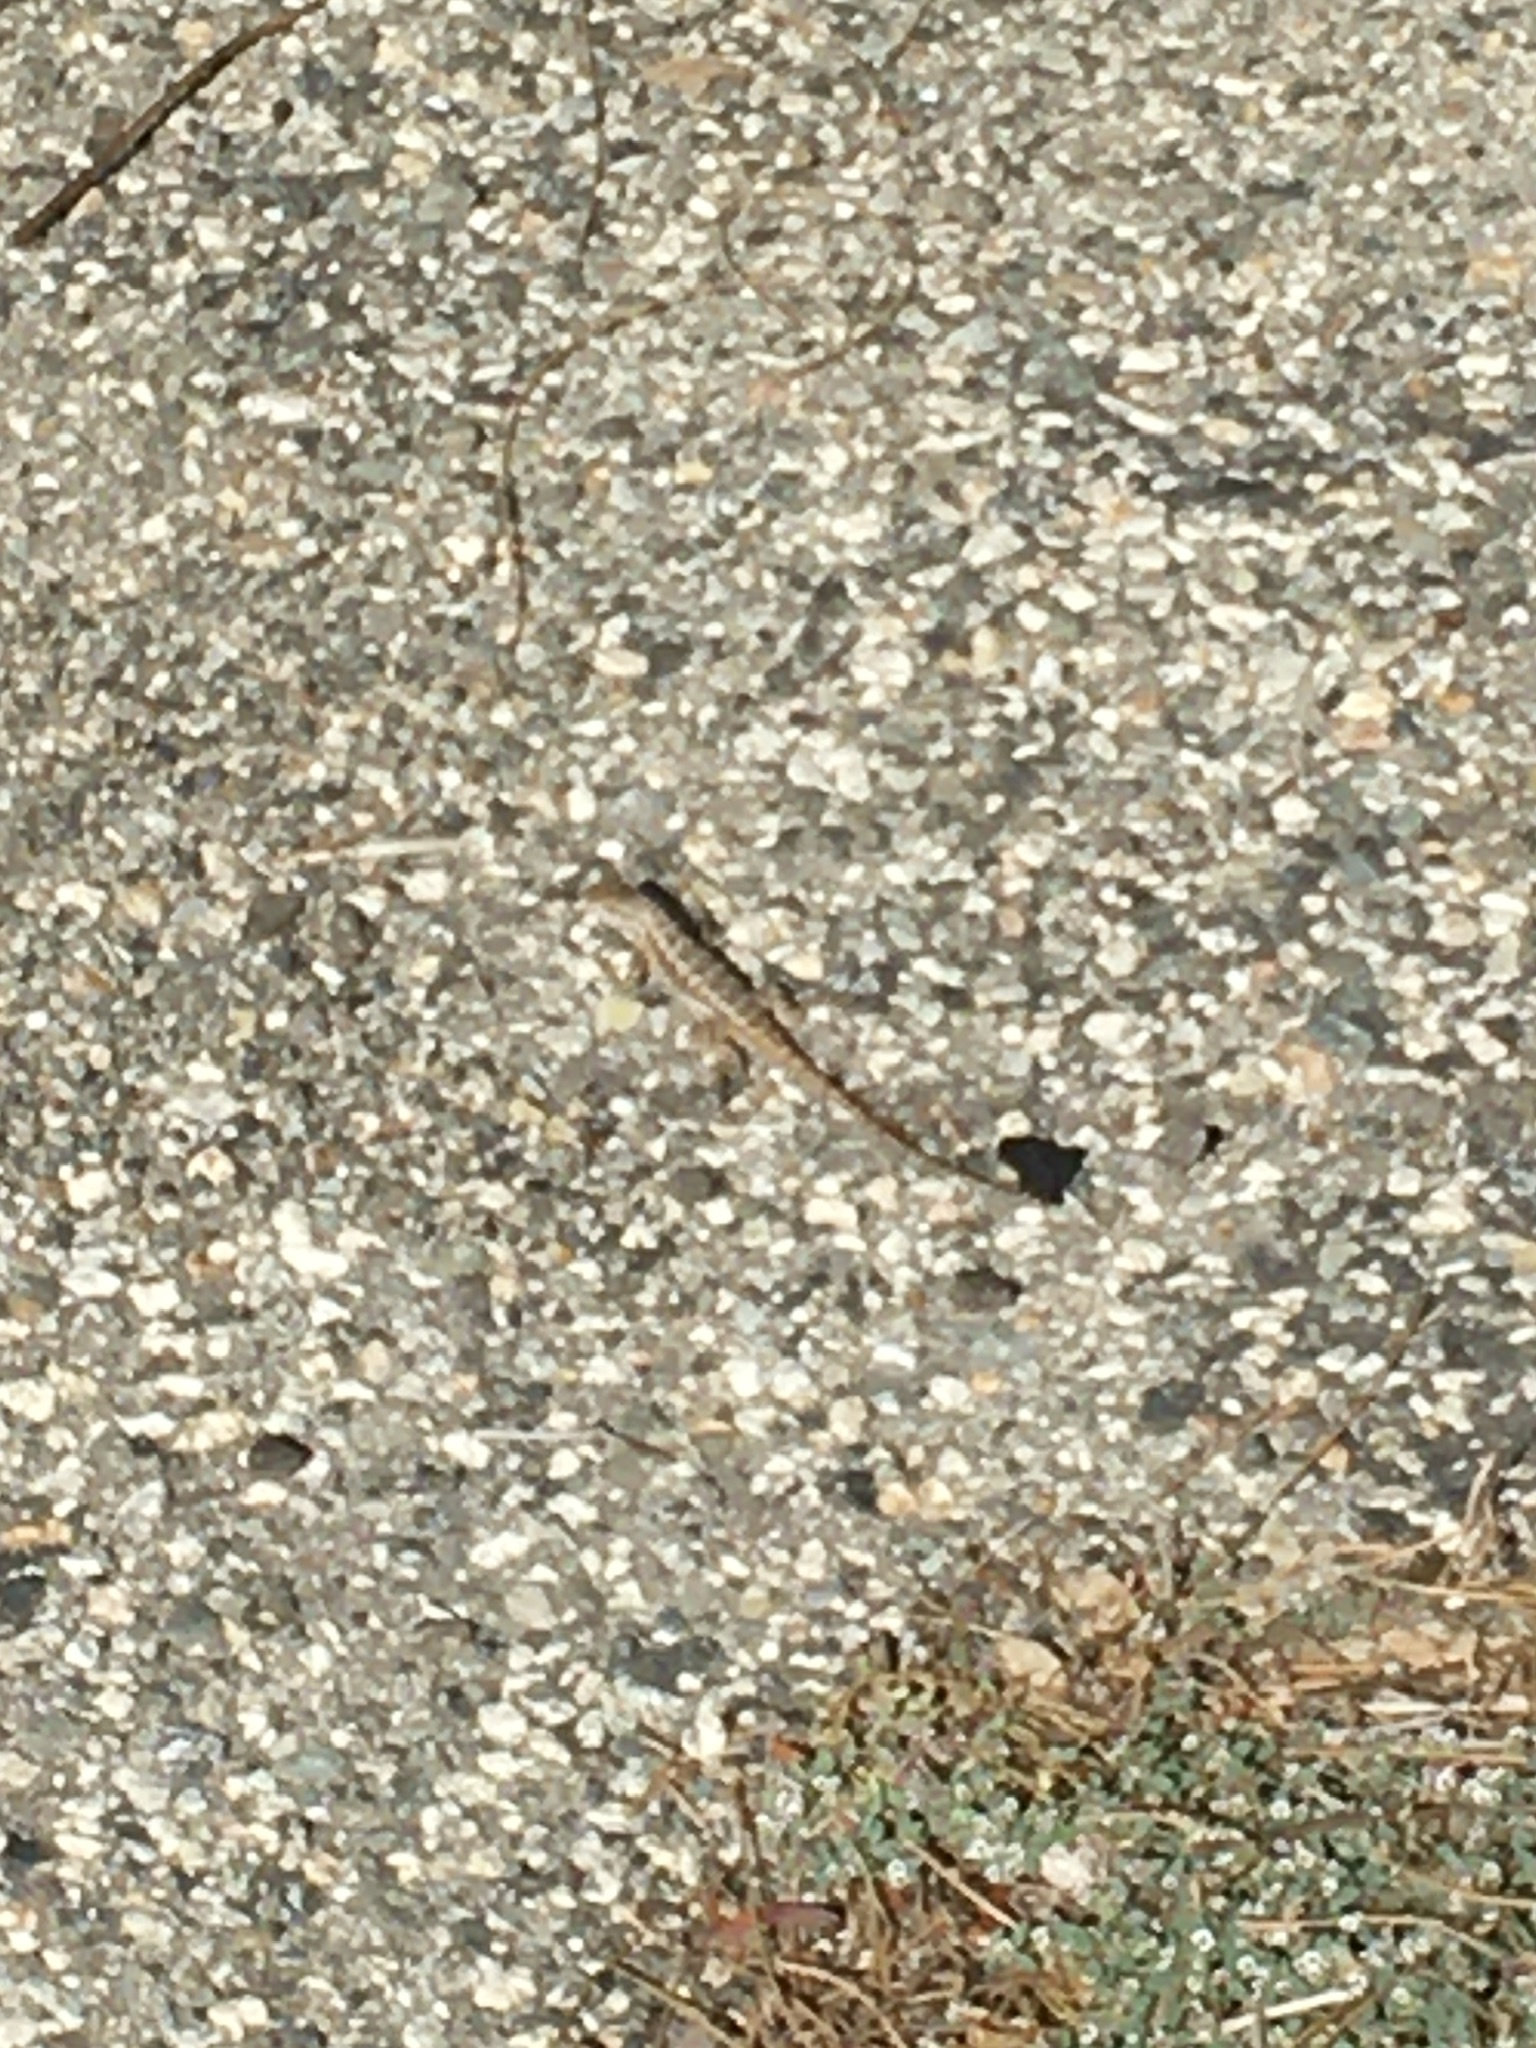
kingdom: Animalia
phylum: Chordata
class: Squamata
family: Phrynosomatidae
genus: Sceloporus
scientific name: Sceloporus occidentalis
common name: Western fence lizard
